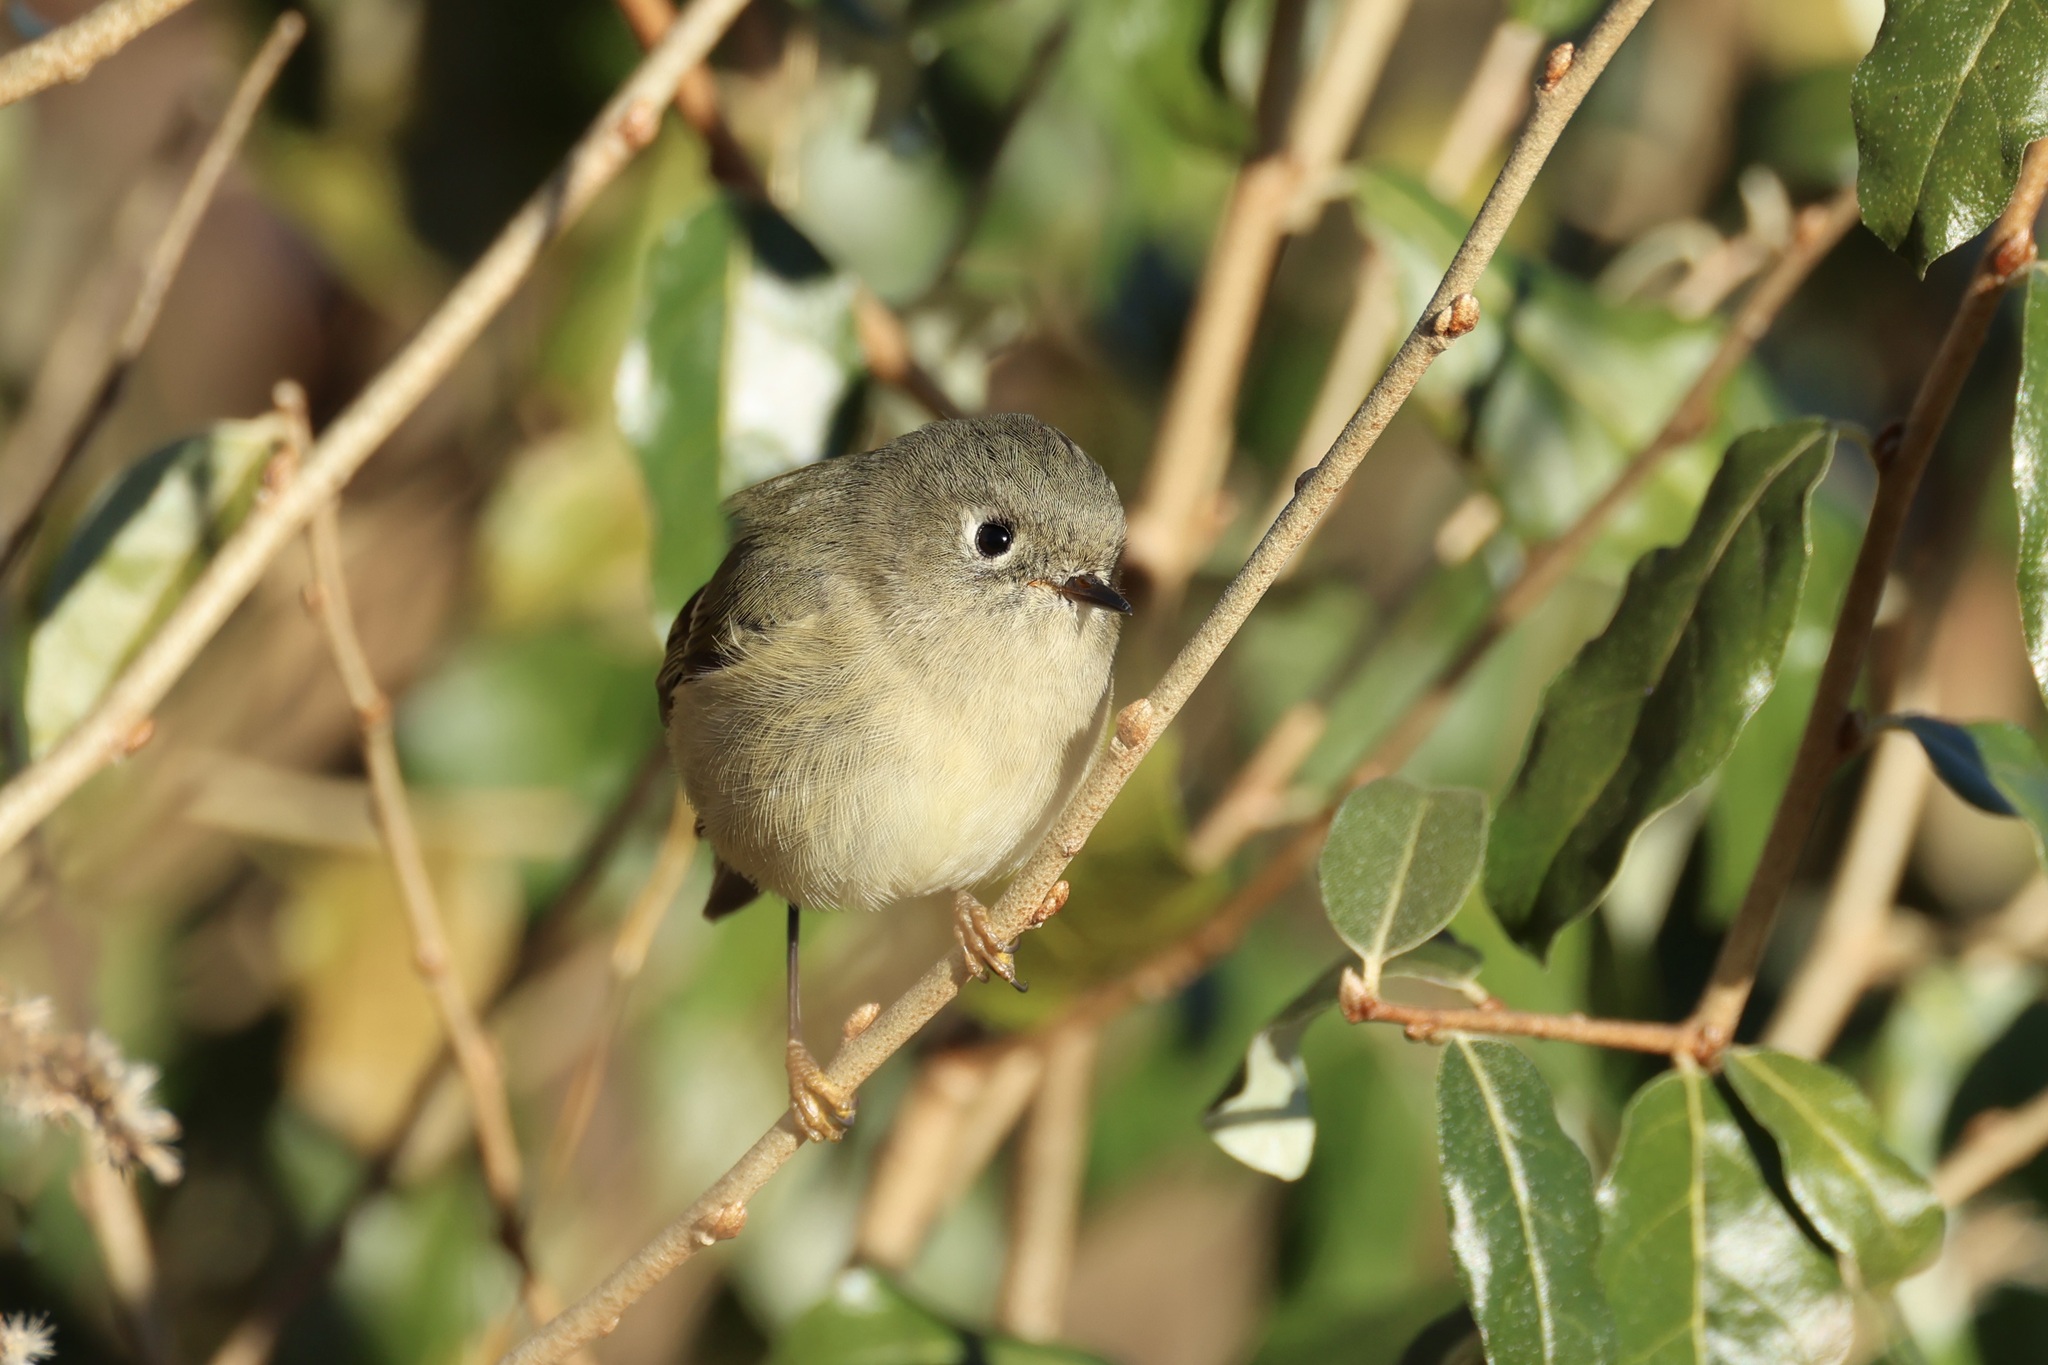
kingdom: Animalia
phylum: Chordata
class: Aves
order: Passeriformes
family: Regulidae
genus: Regulus
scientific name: Regulus calendula
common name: Ruby-crowned kinglet
